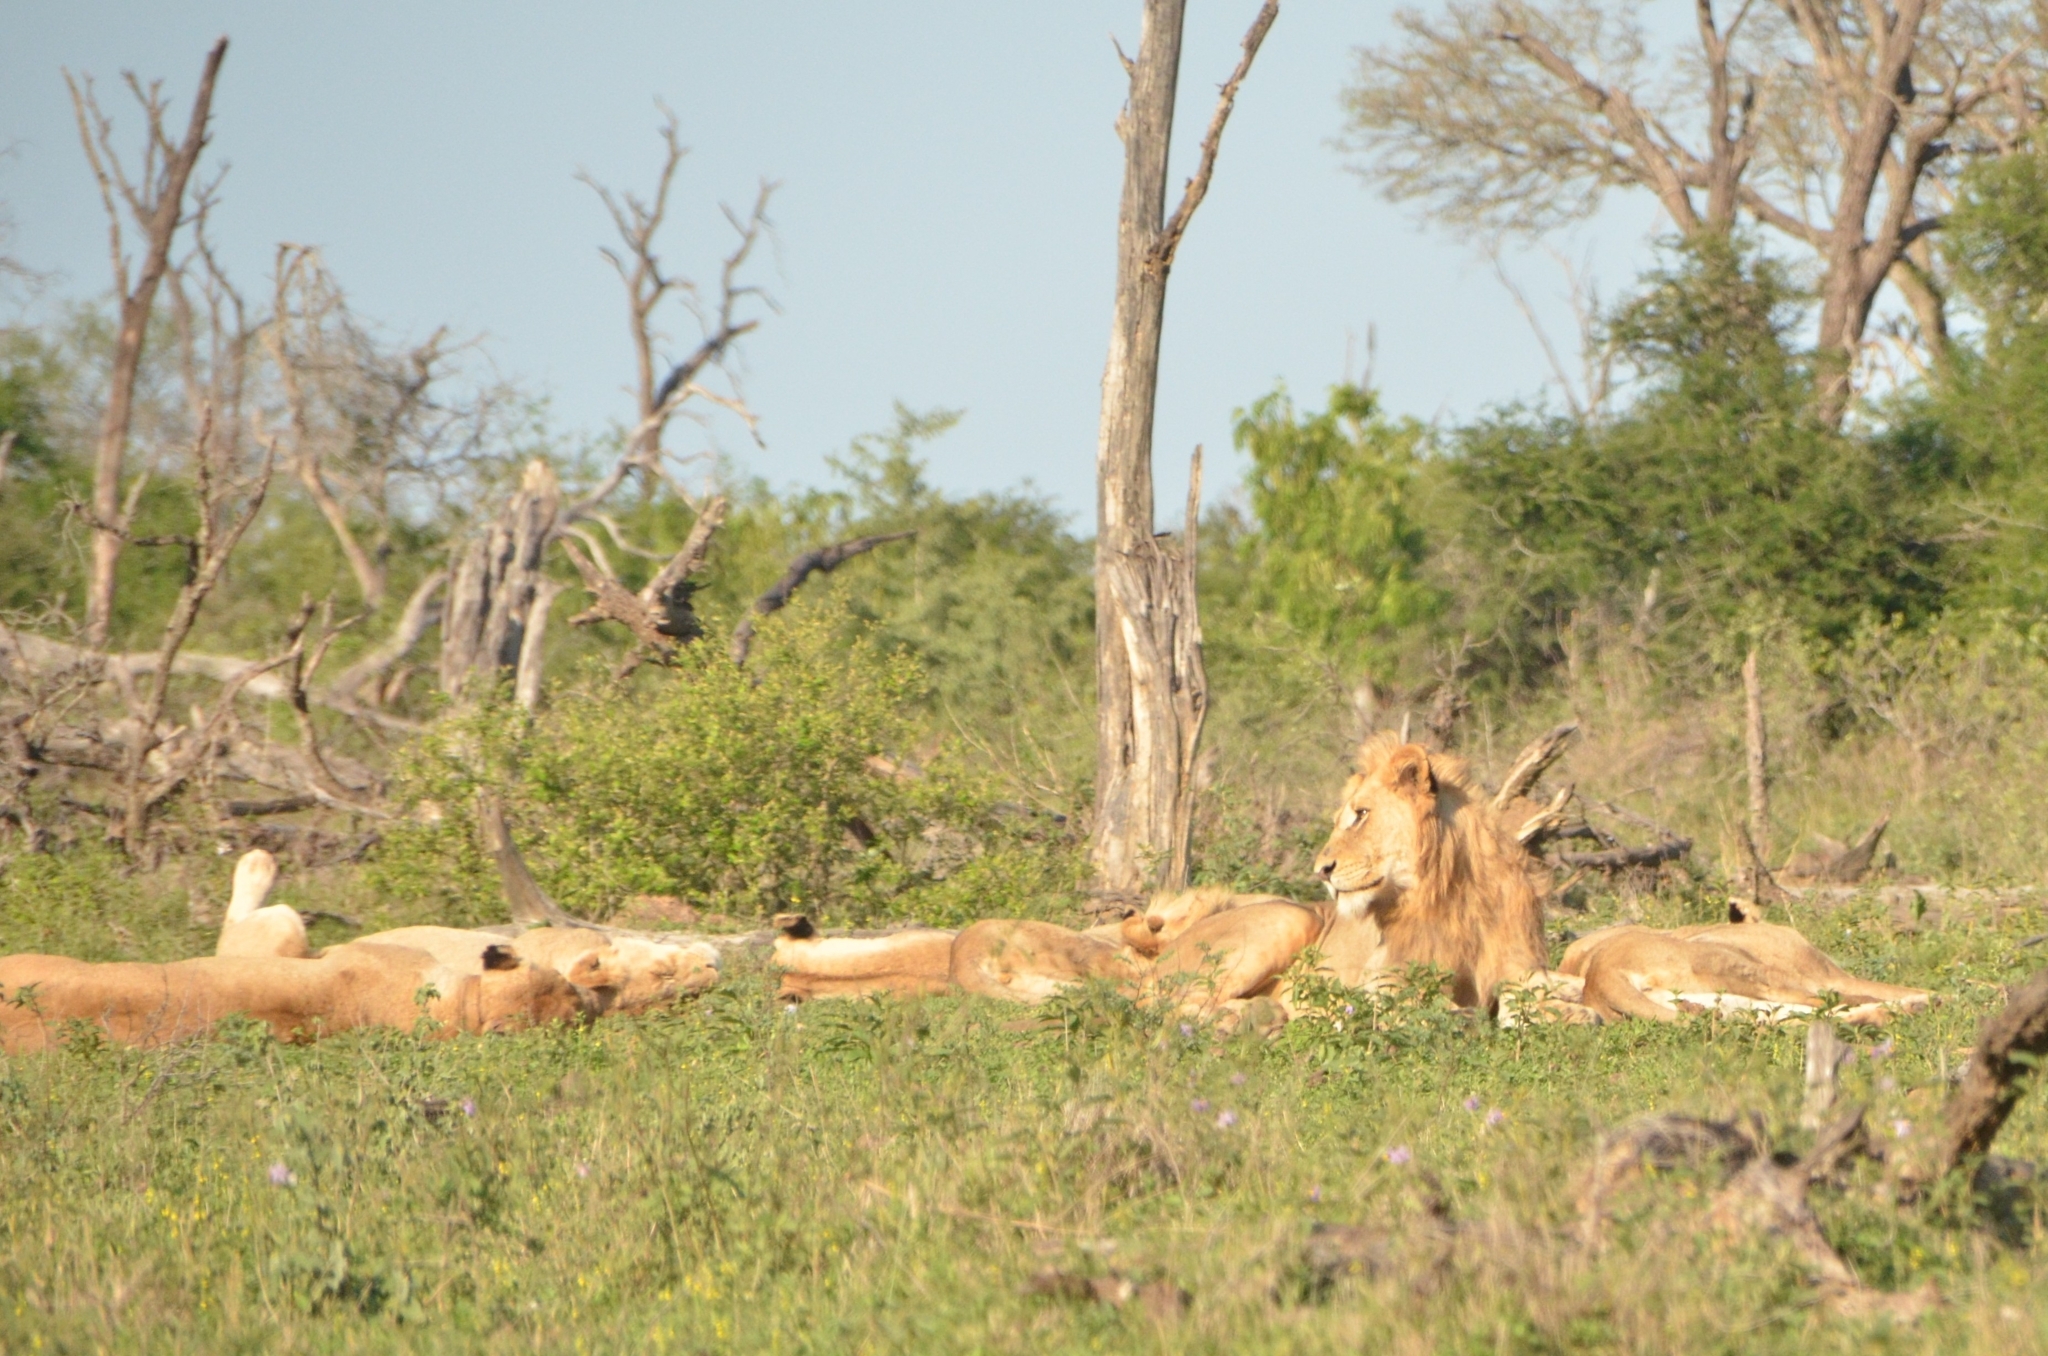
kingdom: Animalia
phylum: Chordata
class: Mammalia
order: Carnivora
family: Felidae
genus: Panthera
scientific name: Panthera leo
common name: Lion
